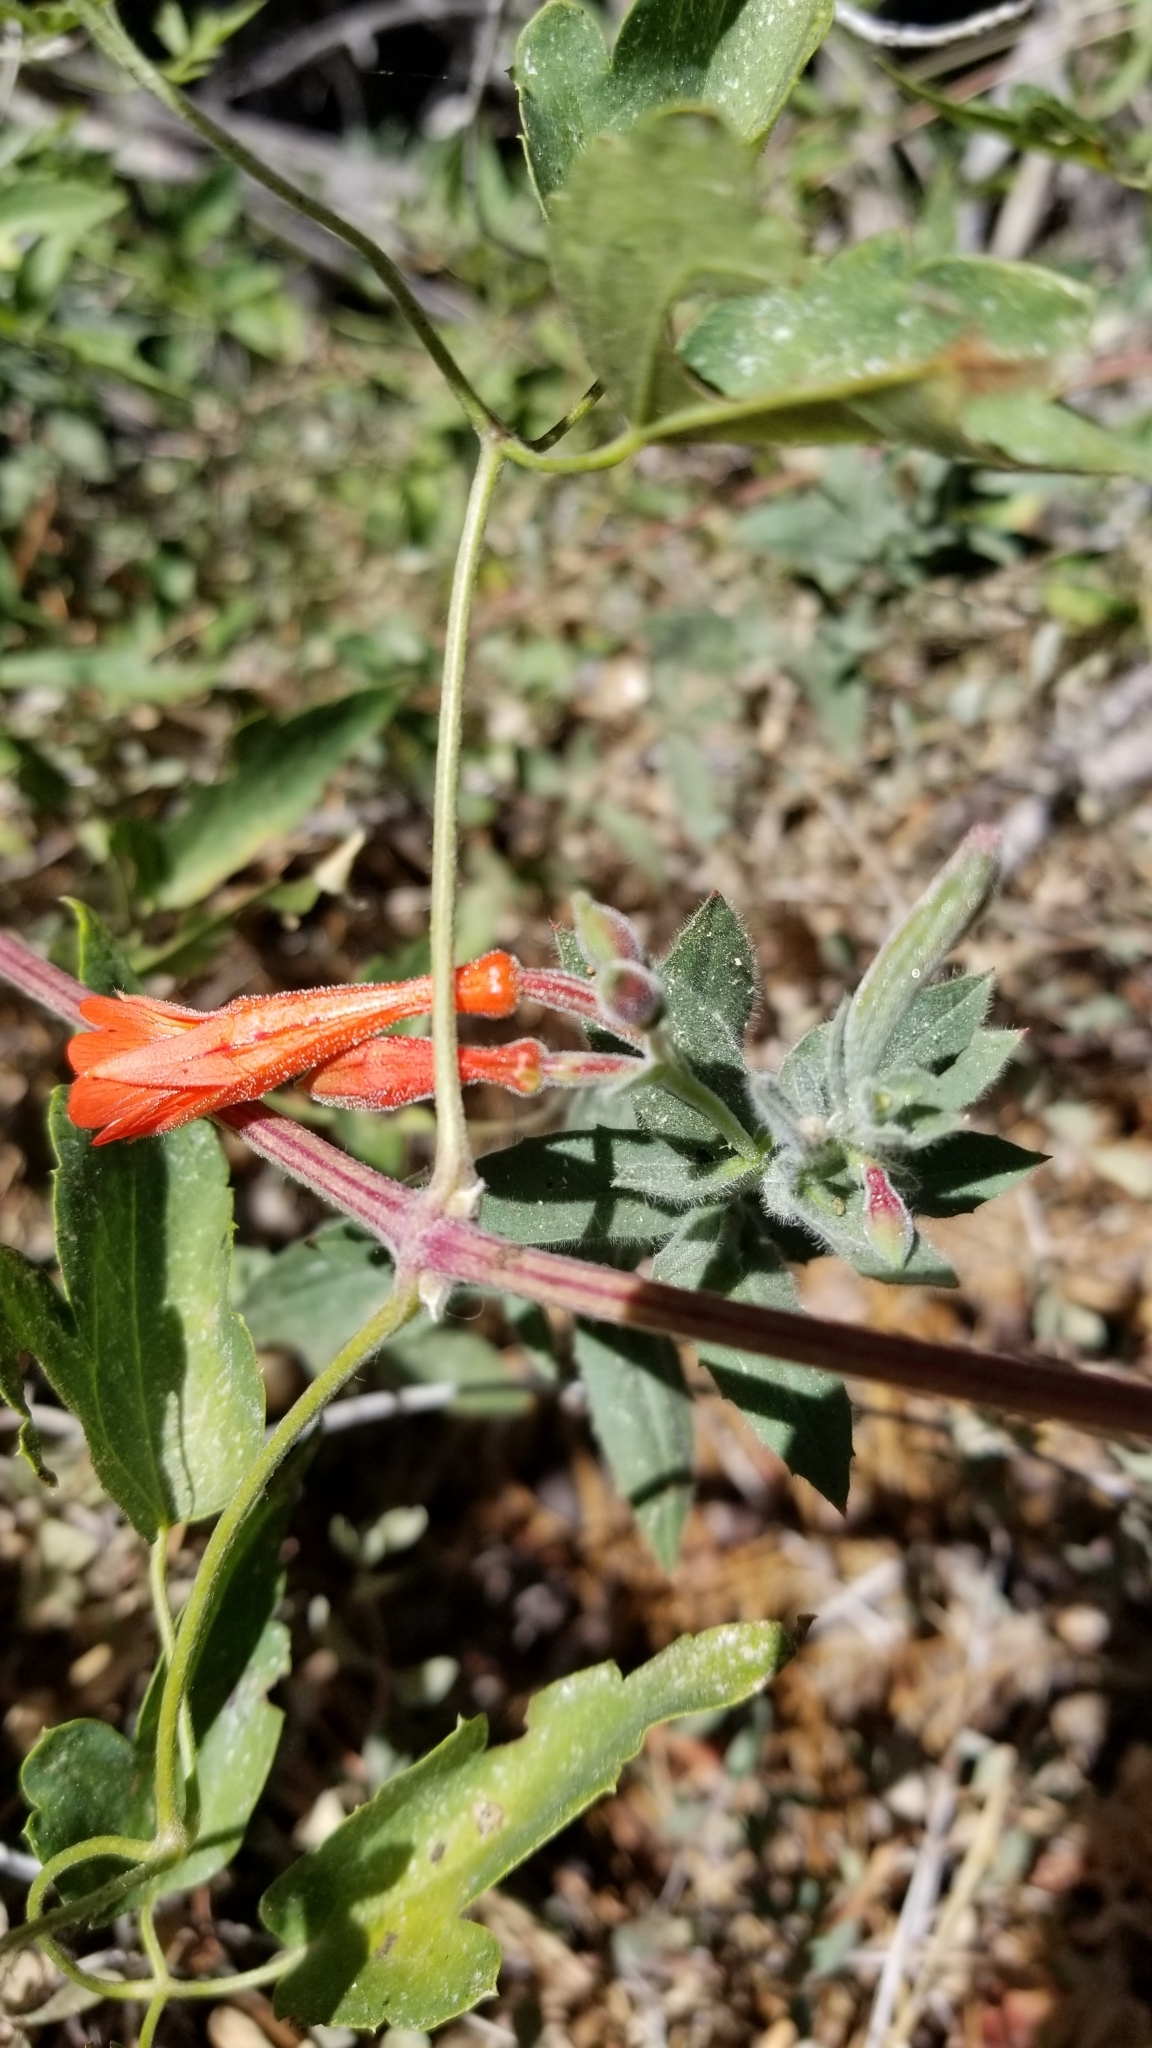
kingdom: Plantae
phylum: Tracheophyta
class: Magnoliopsida
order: Myrtales
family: Onagraceae
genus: Epilobium
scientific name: Epilobium canum
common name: California-fuchsia
